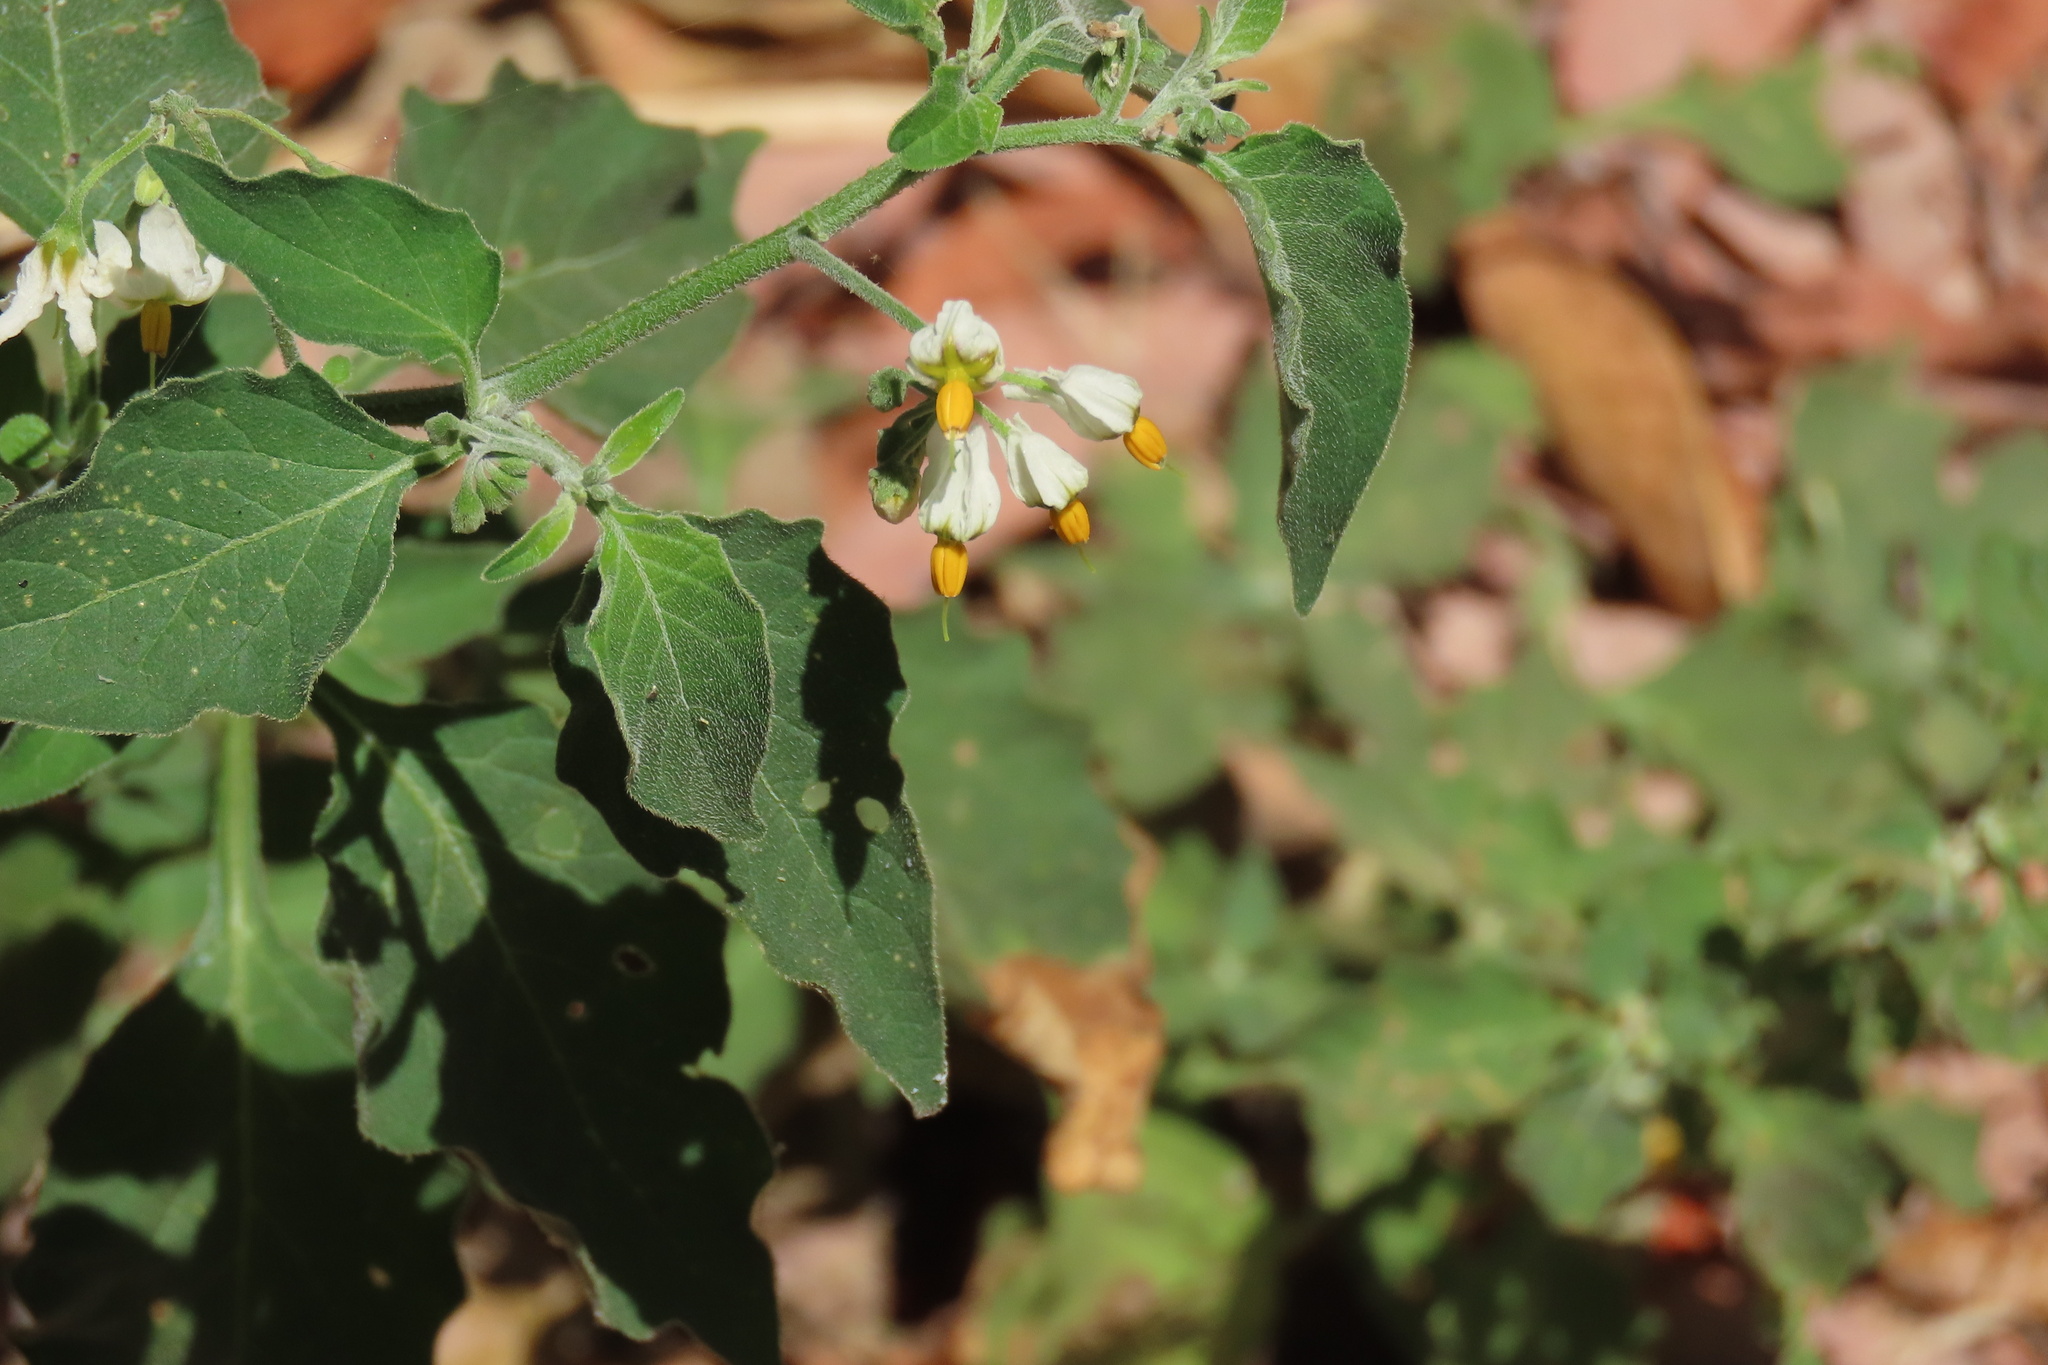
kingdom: Plantae
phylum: Tracheophyta
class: Magnoliopsida
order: Solanales
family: Solanaceae
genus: Solanum
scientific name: Solanum douglasii
